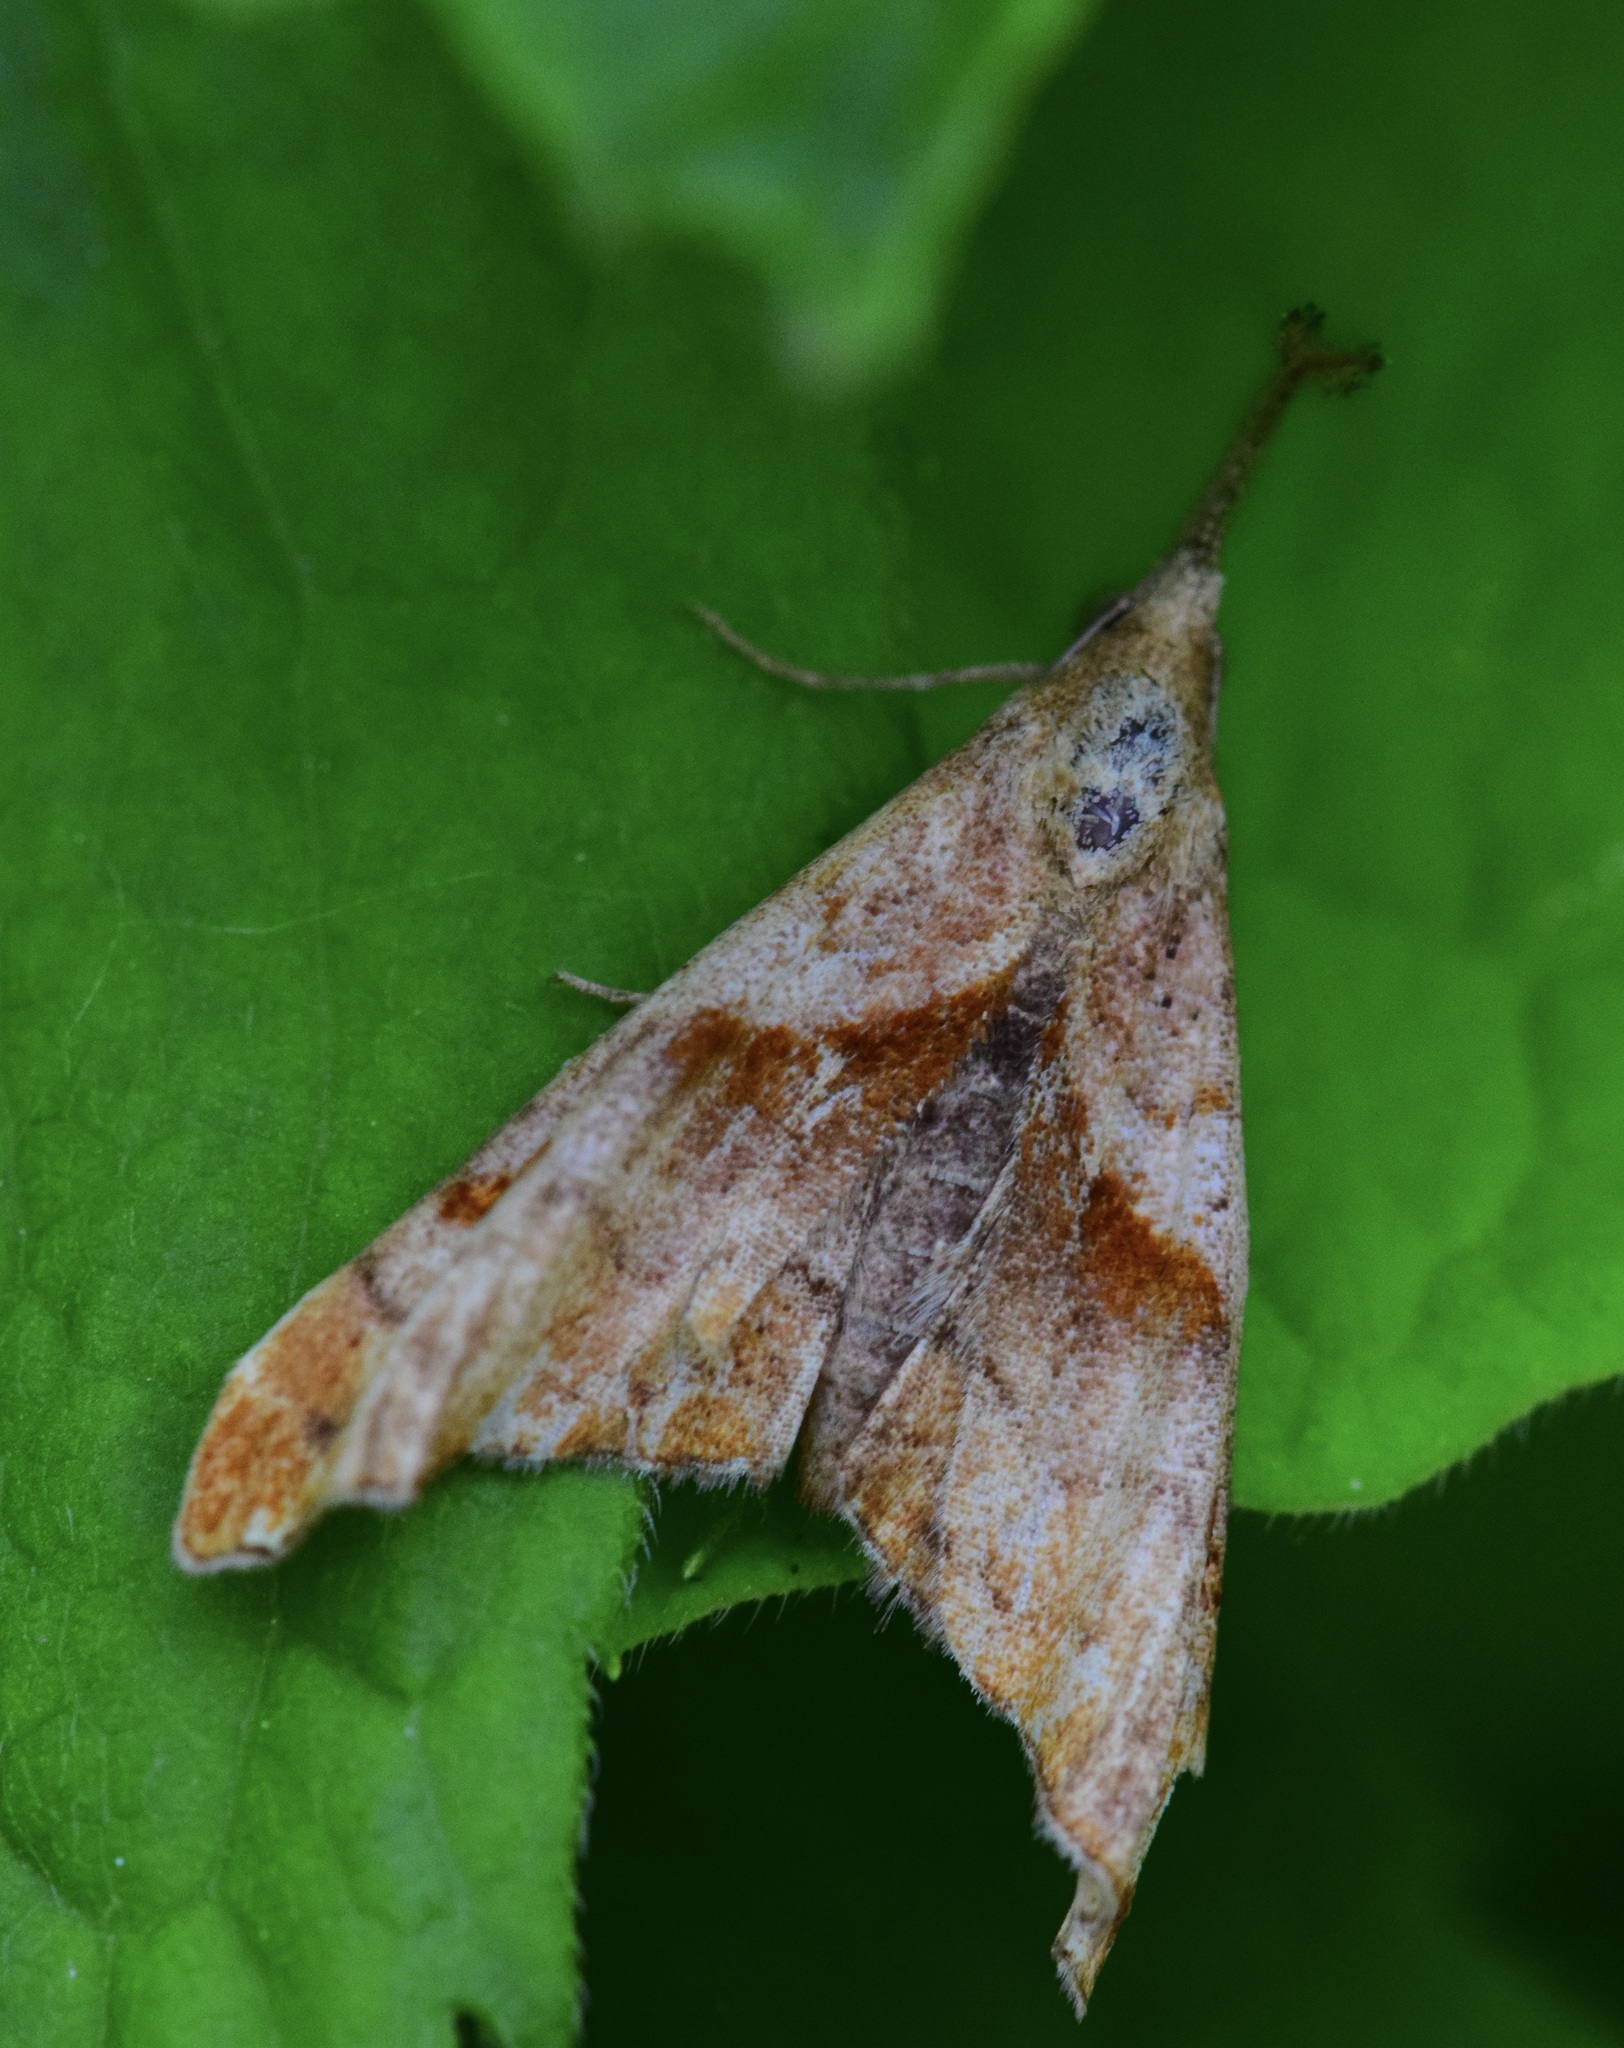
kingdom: Animalia
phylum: Arthropoda
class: Insecta
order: Lepidoptera
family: Erebidae
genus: Palthis
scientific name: Palthis angulalis
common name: Dark-spotted palthis moth
